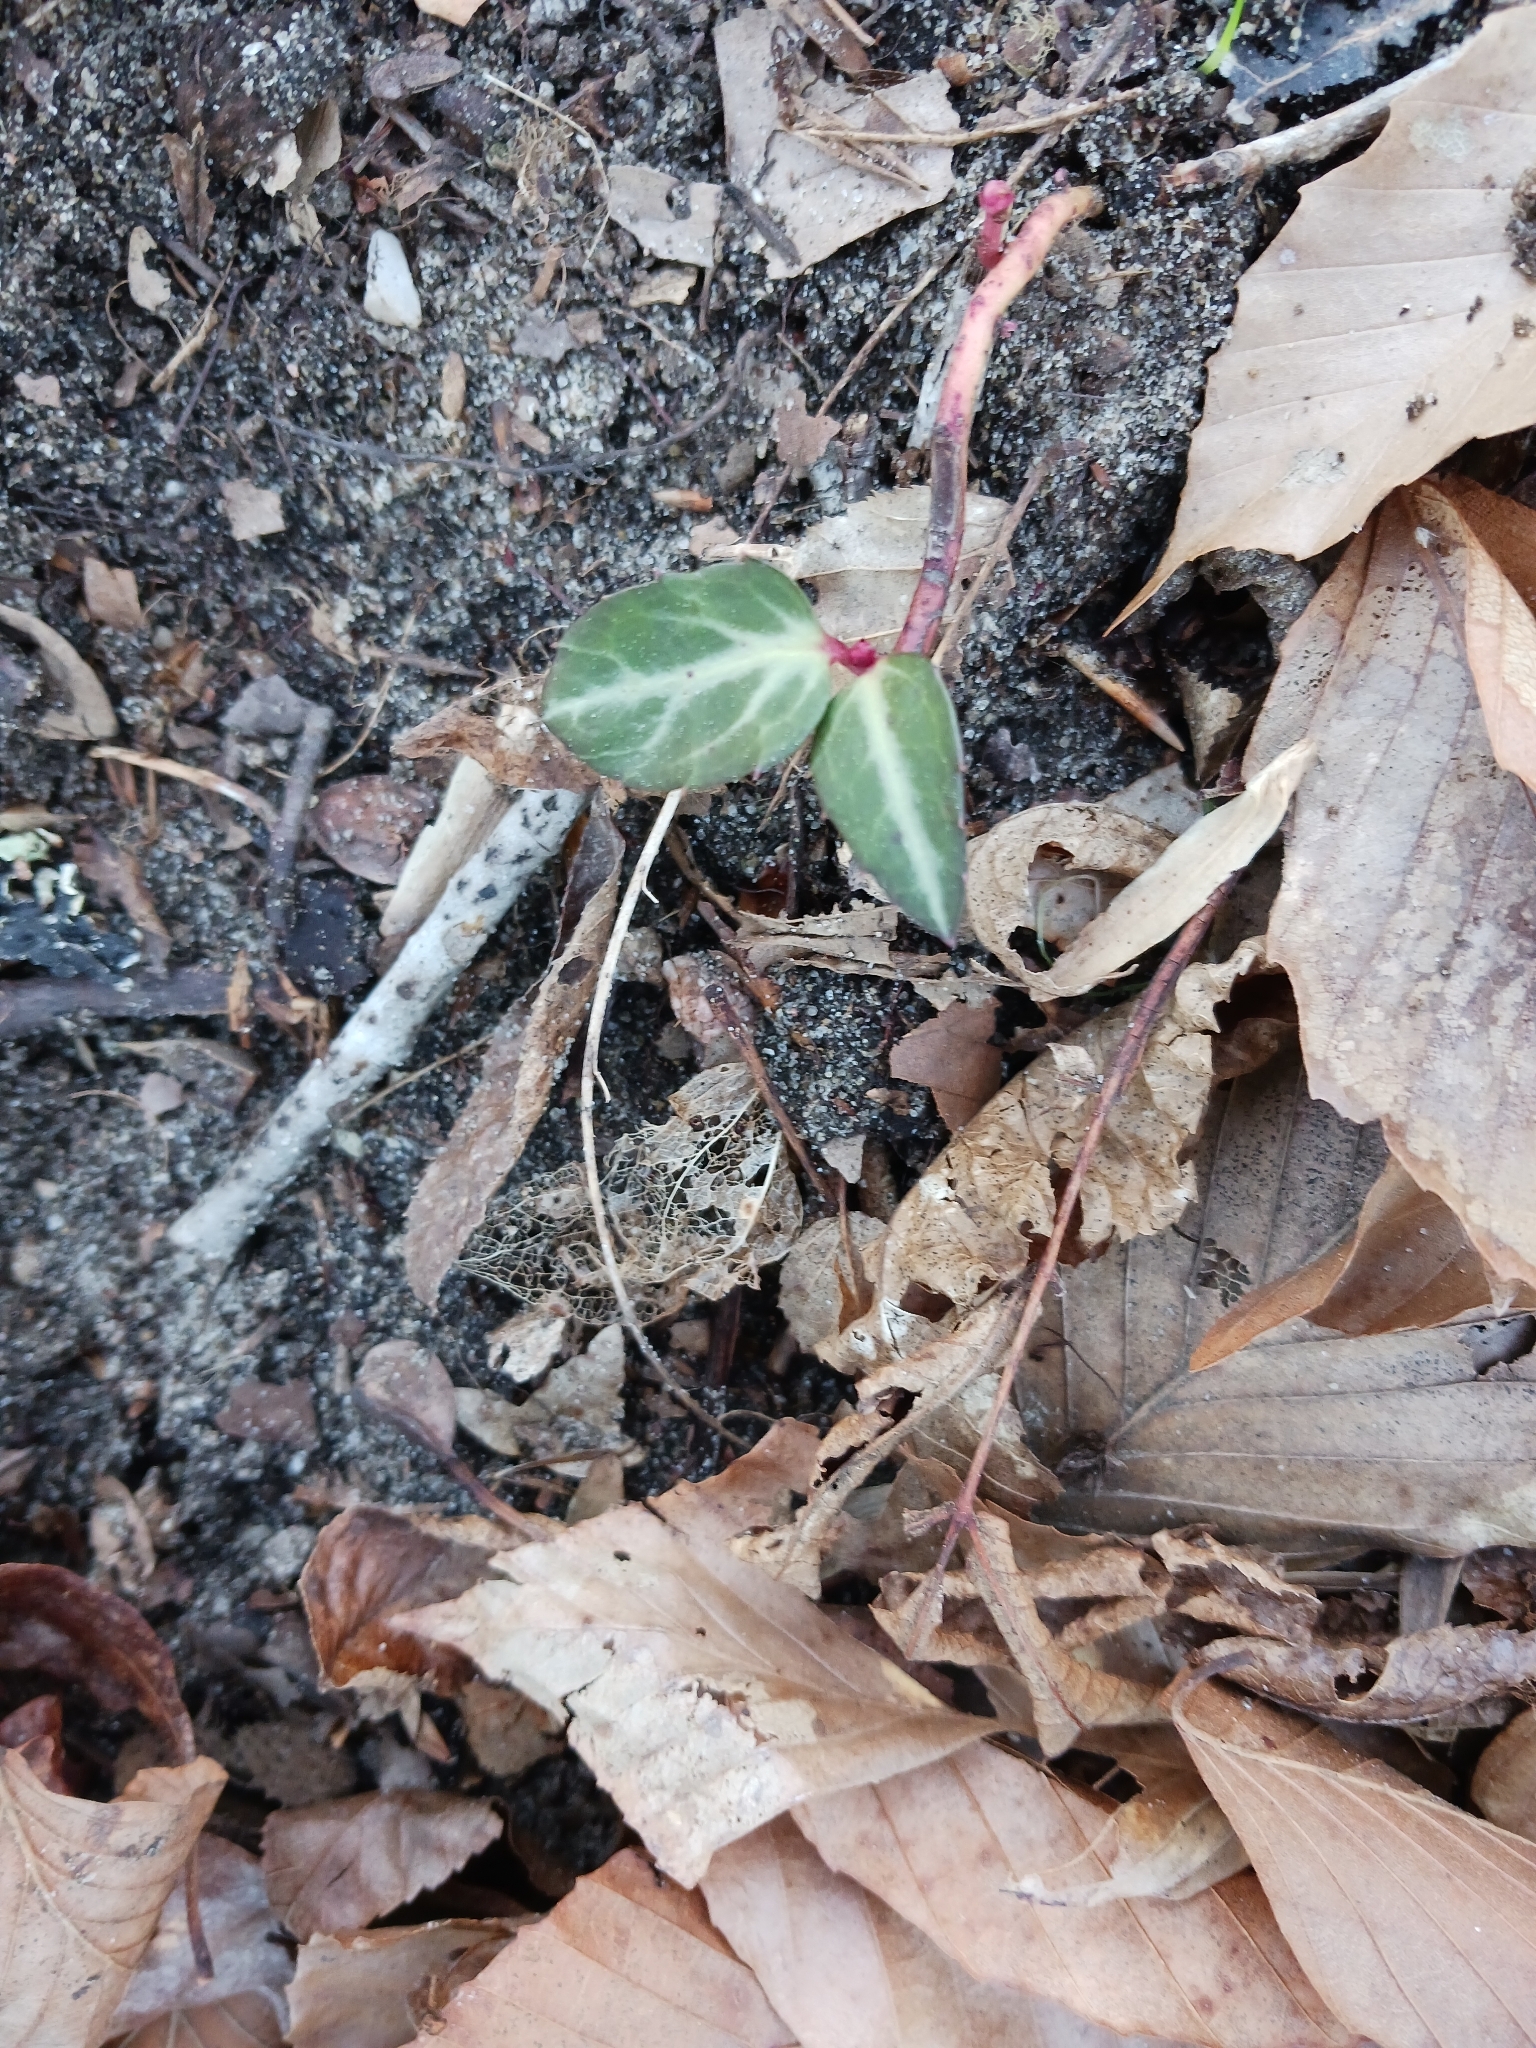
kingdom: Plantae
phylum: Tracheophyta
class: Magnoliopsida
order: Ericales
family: Ericaceae
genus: Chimaphila
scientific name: Chimaphila maculata
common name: Spotted pipsissewa
